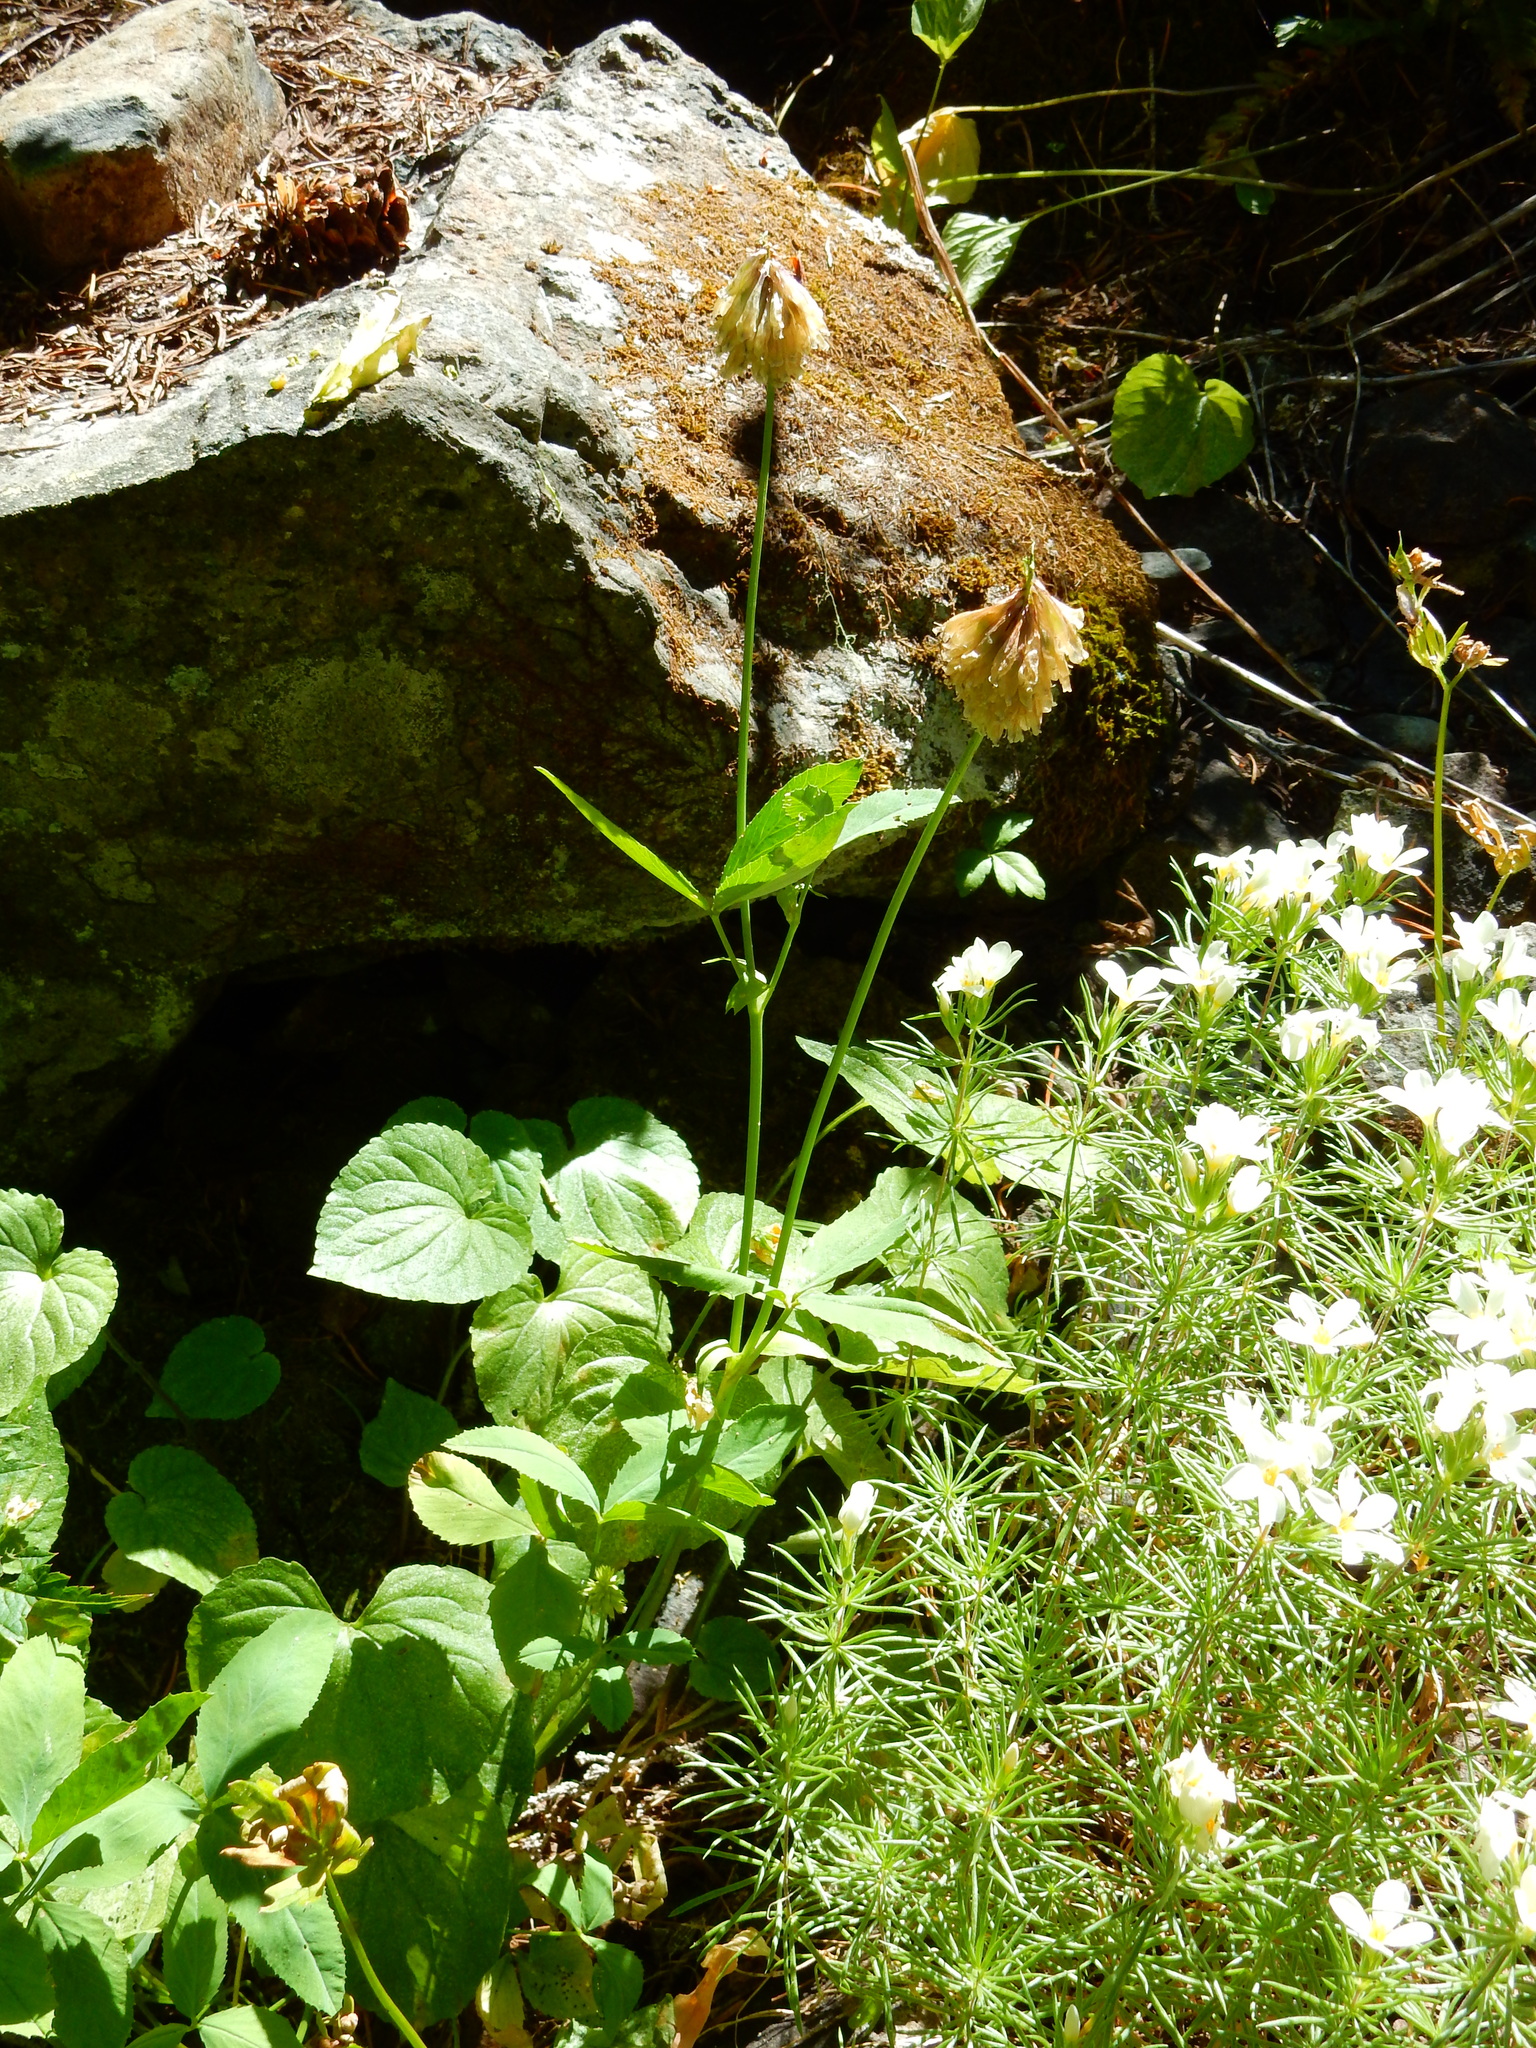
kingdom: Plantae
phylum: Tracheophyta
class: Magnoliopsida
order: Fabales
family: Fabaceae
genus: Trifolium
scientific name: Trifolium howellii
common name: Howell's clover
